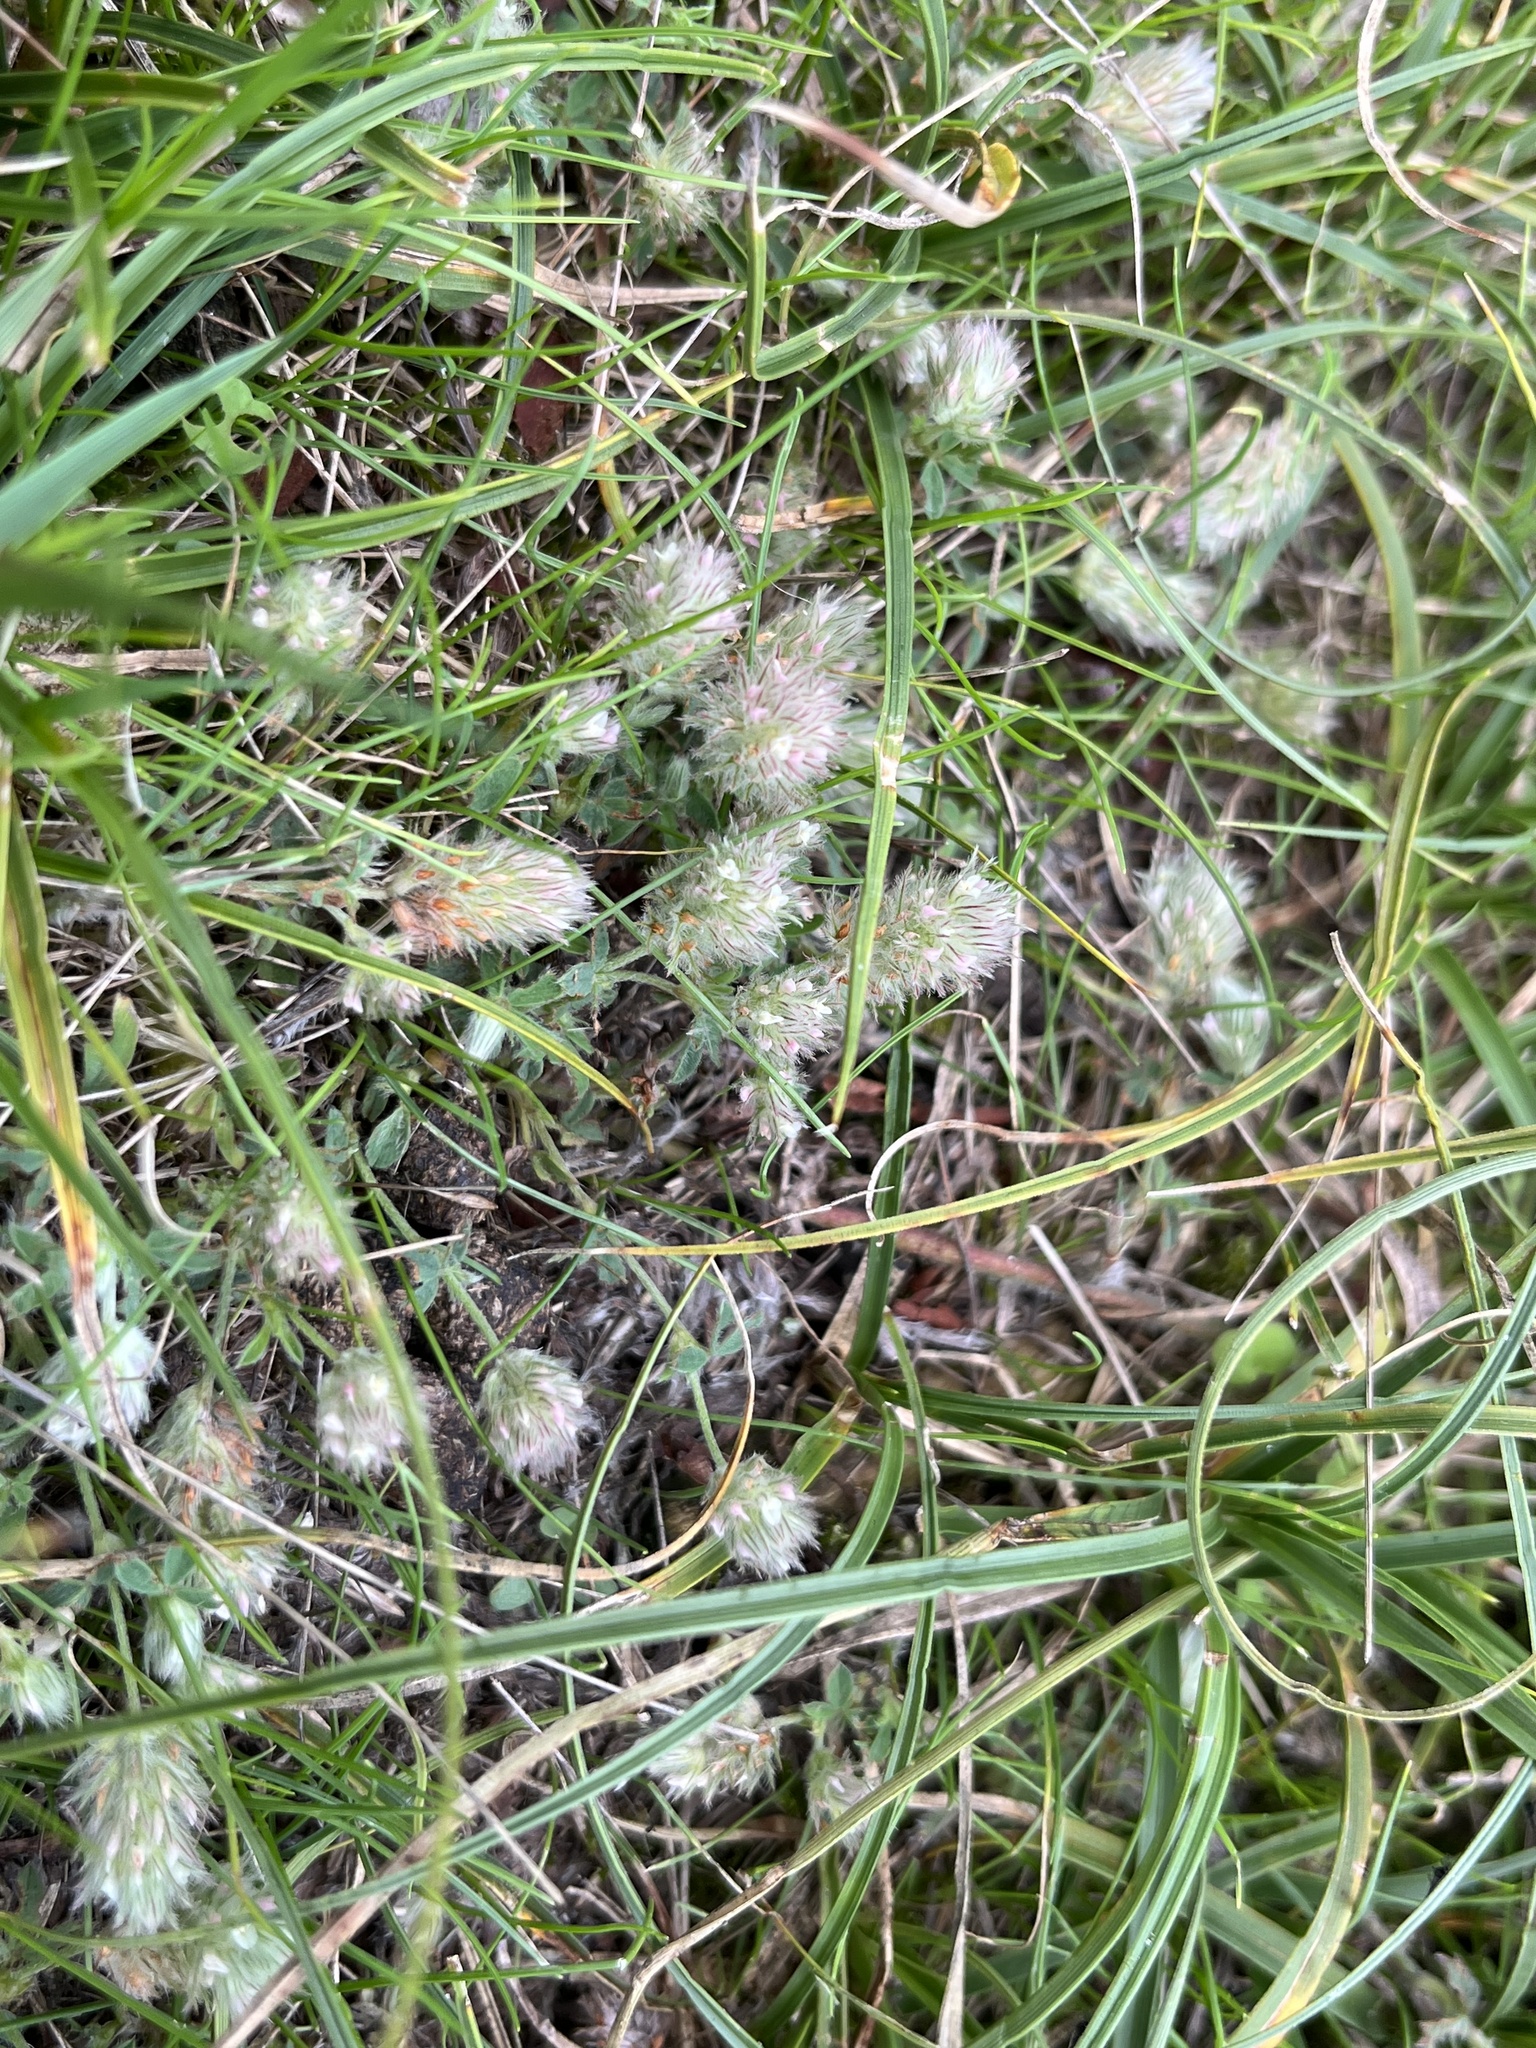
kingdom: Plantae
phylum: Tracheophyta
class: Magnoliopsida
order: Fabales
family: Fabaceae
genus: Trifolium
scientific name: Trifolium arvense
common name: Hare's-foot clover
